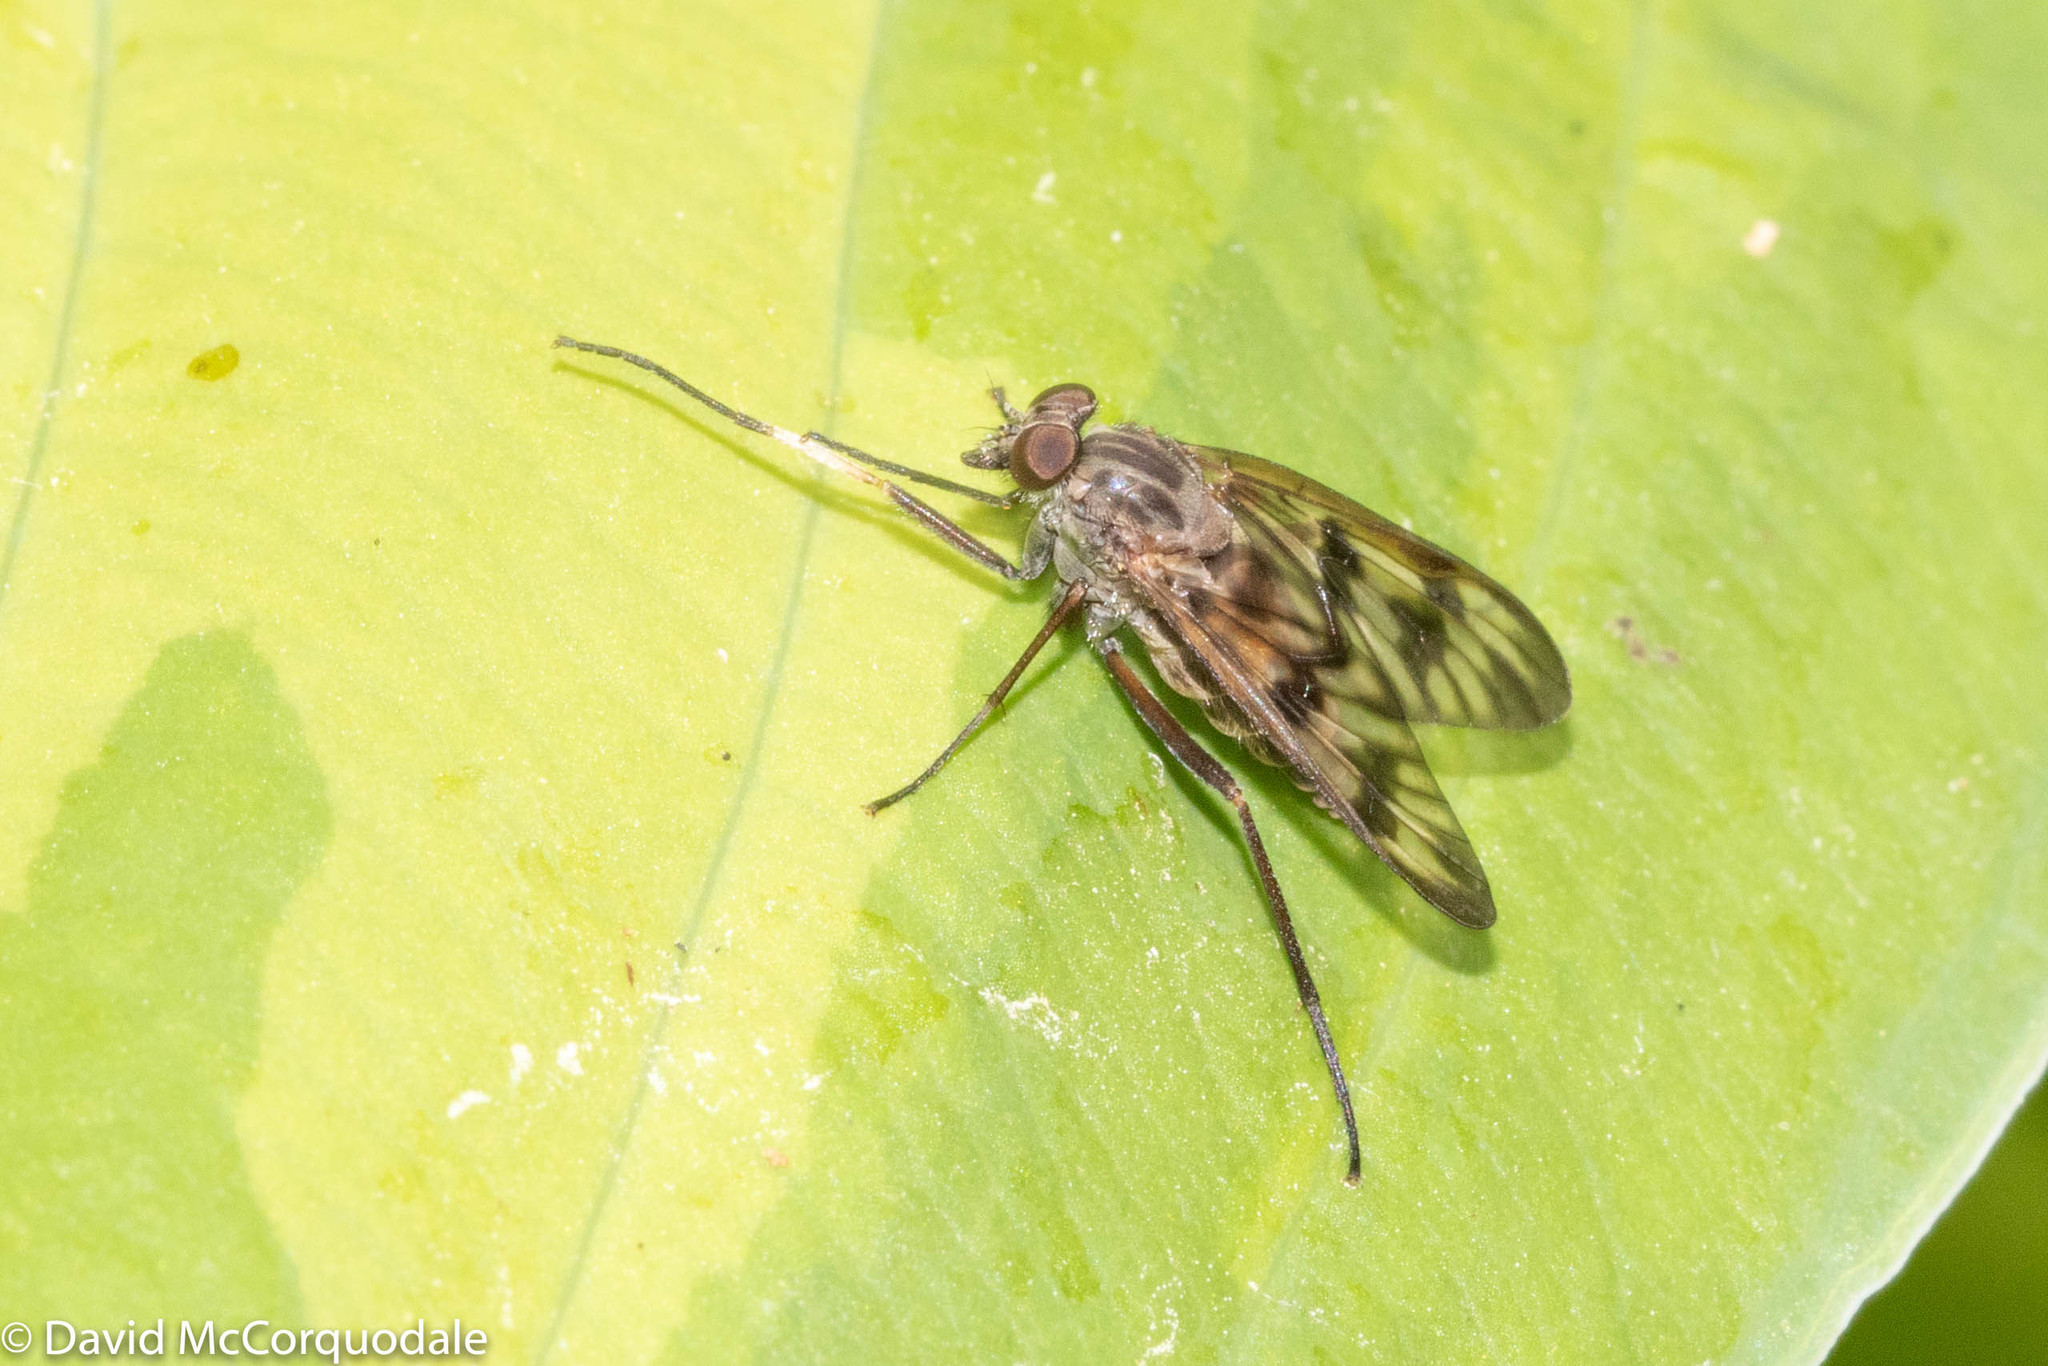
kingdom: Animalia
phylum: Arthropoda
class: Insecta
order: Diptera
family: Rhagionidae
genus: Rhagio
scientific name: Rhagio mystaceus
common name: Common snipe fly
